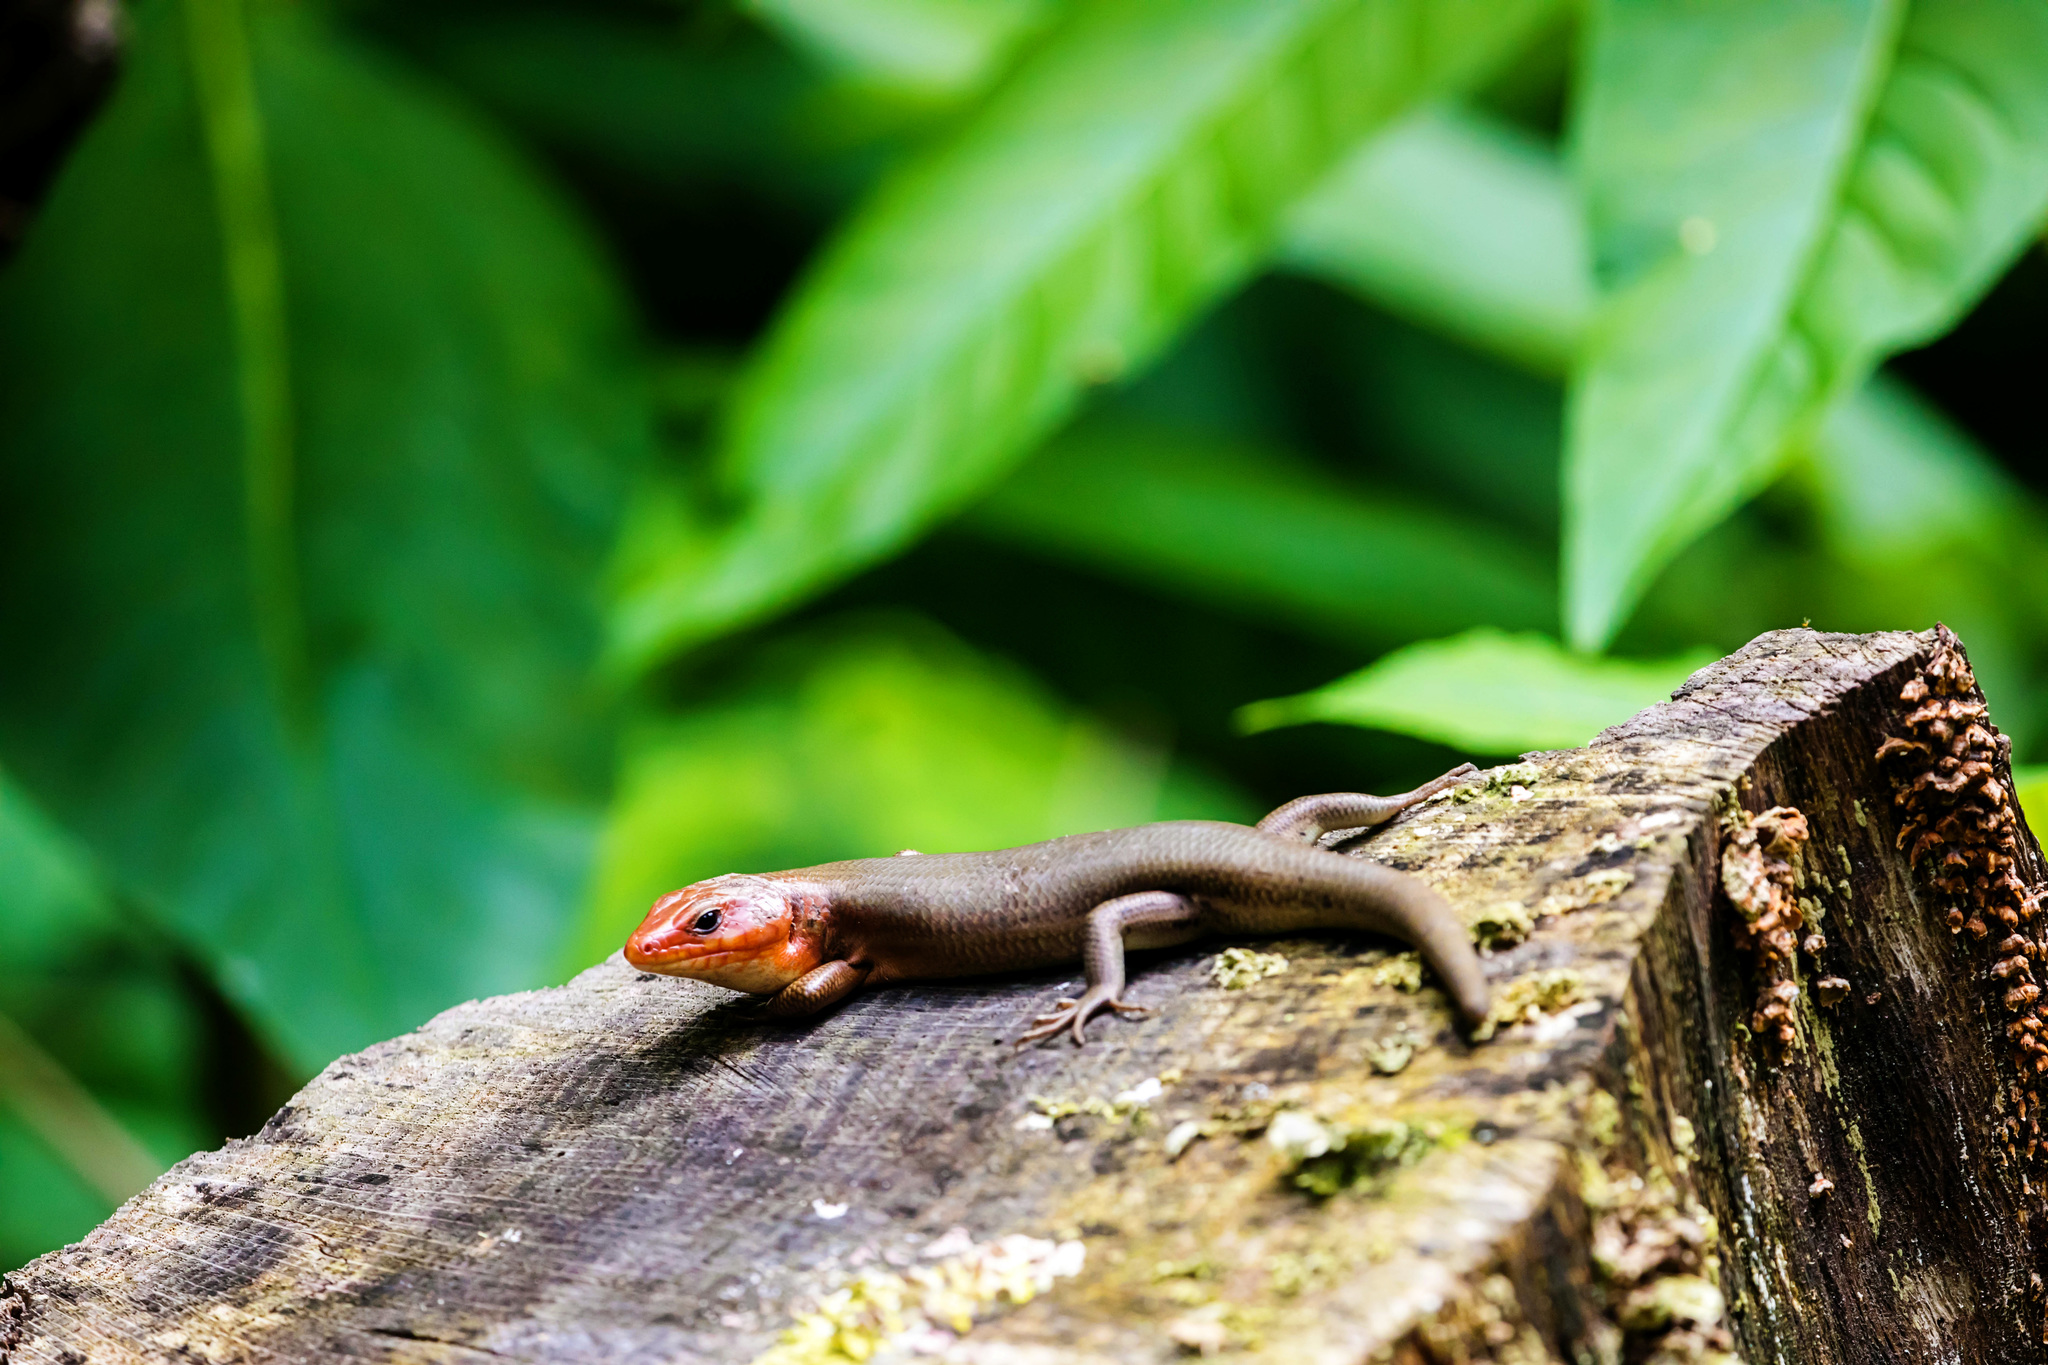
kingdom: Animalia
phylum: Chordata
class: Squamata
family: Scincidae
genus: Plestiodon
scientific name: Plestiodon laticeps
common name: Broadhead skink
